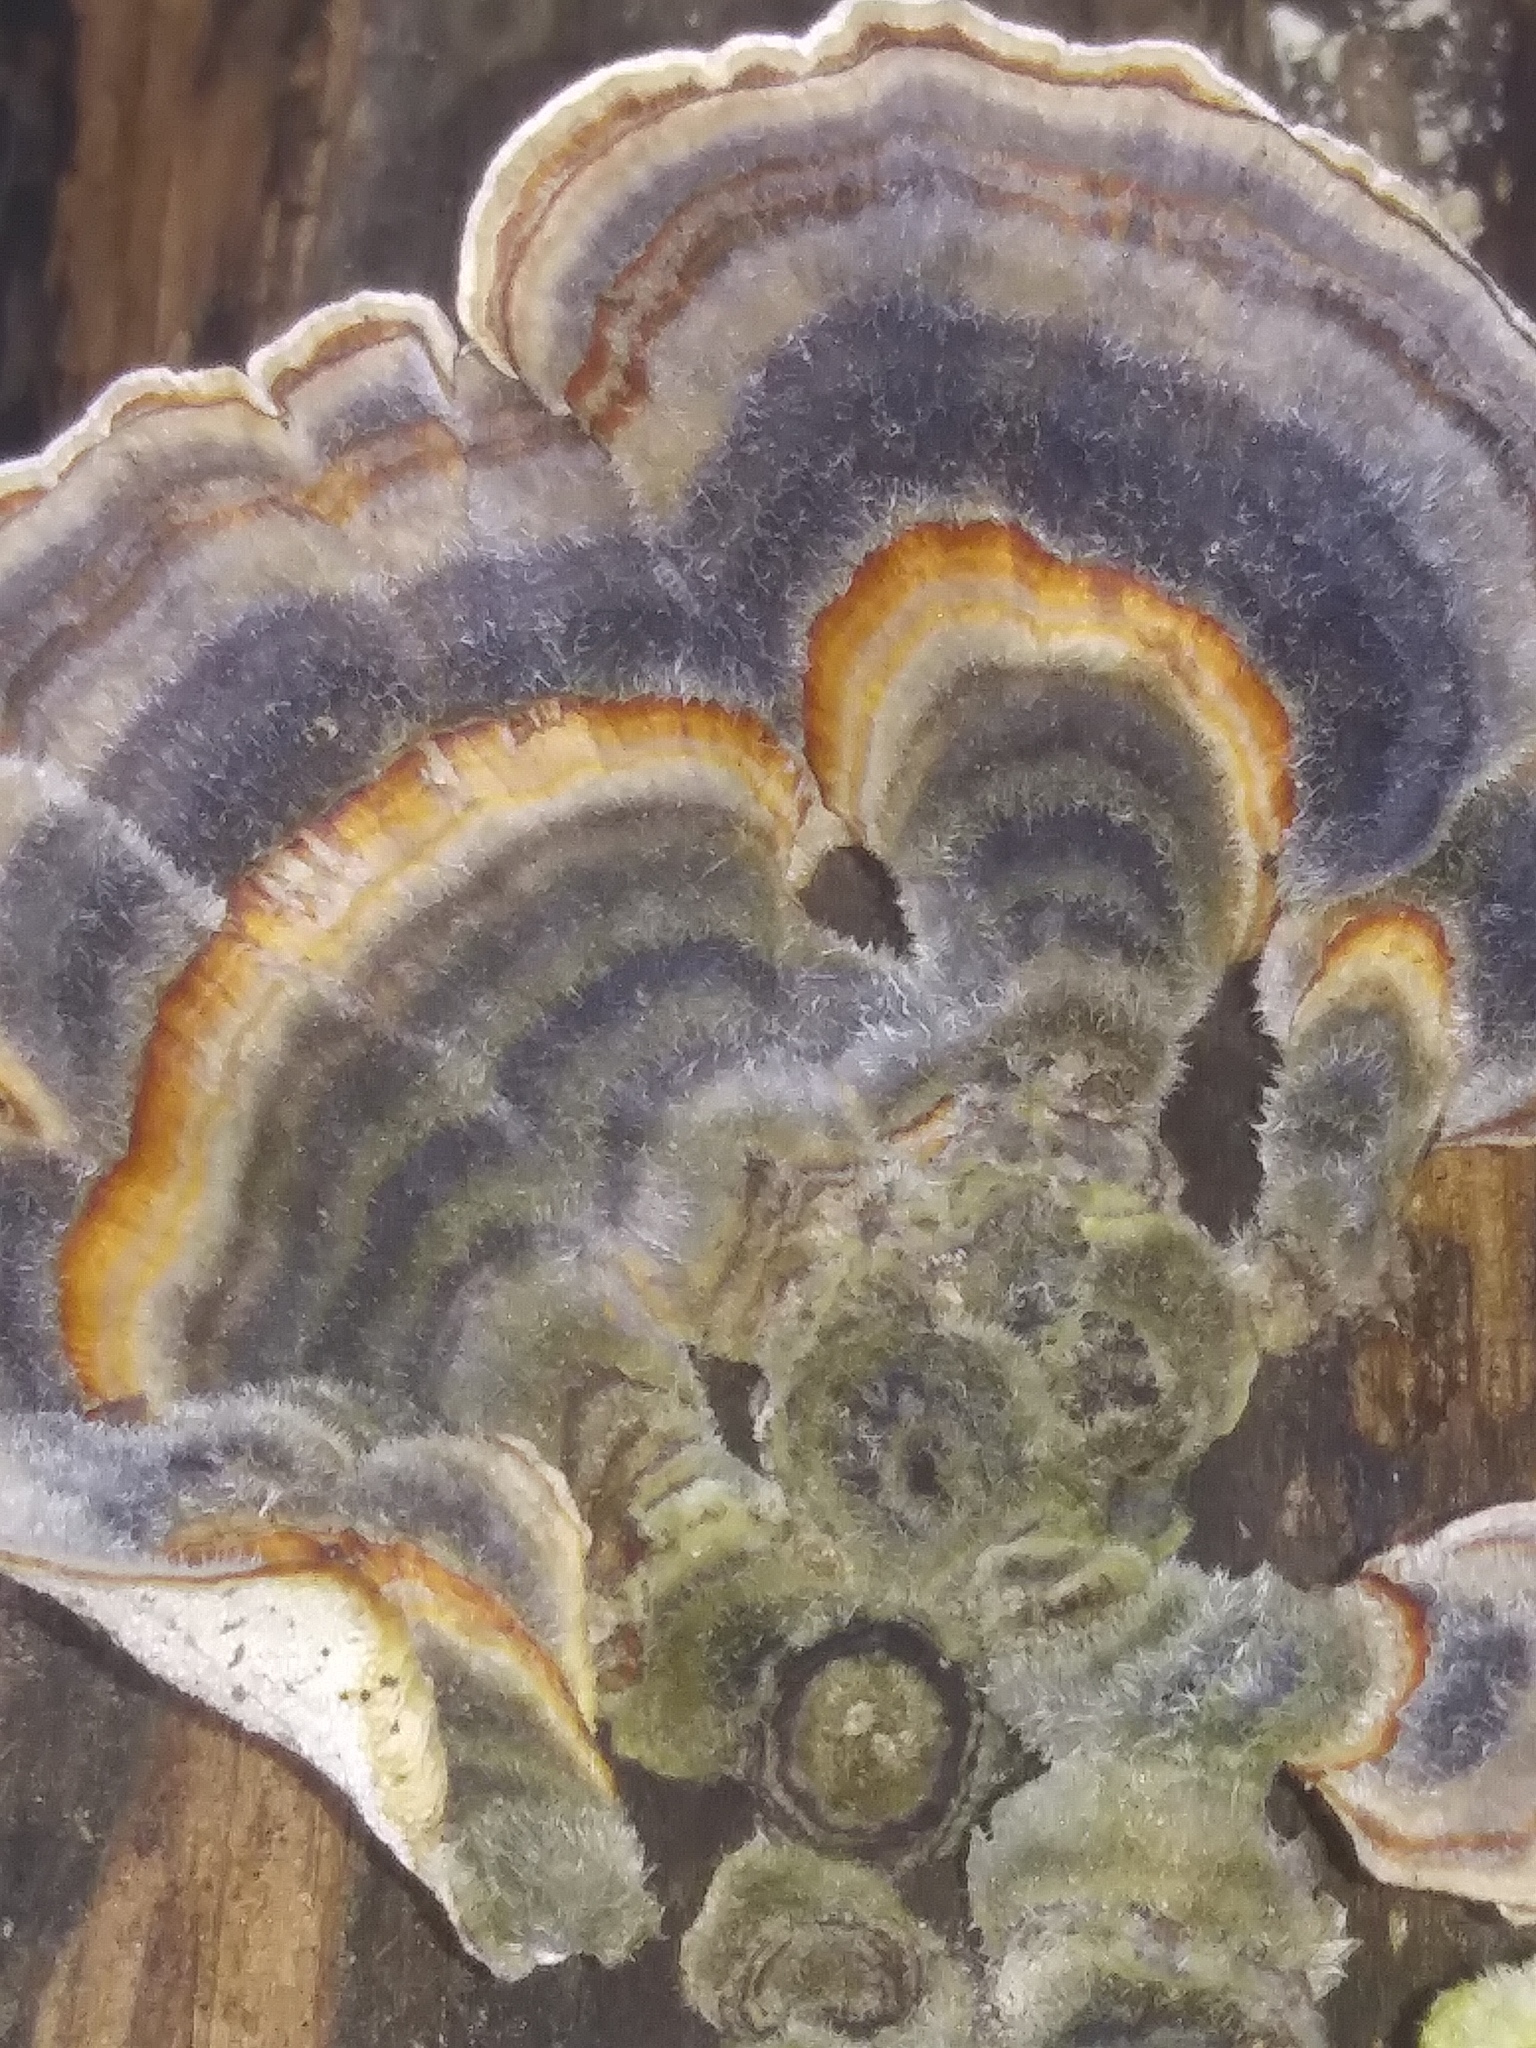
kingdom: Fungi
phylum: Basidiomycota
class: Agaricomycetes
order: Polyporales
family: Polyporaceae
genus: Trametes
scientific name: Trametes versicolor
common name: Turkeytail
